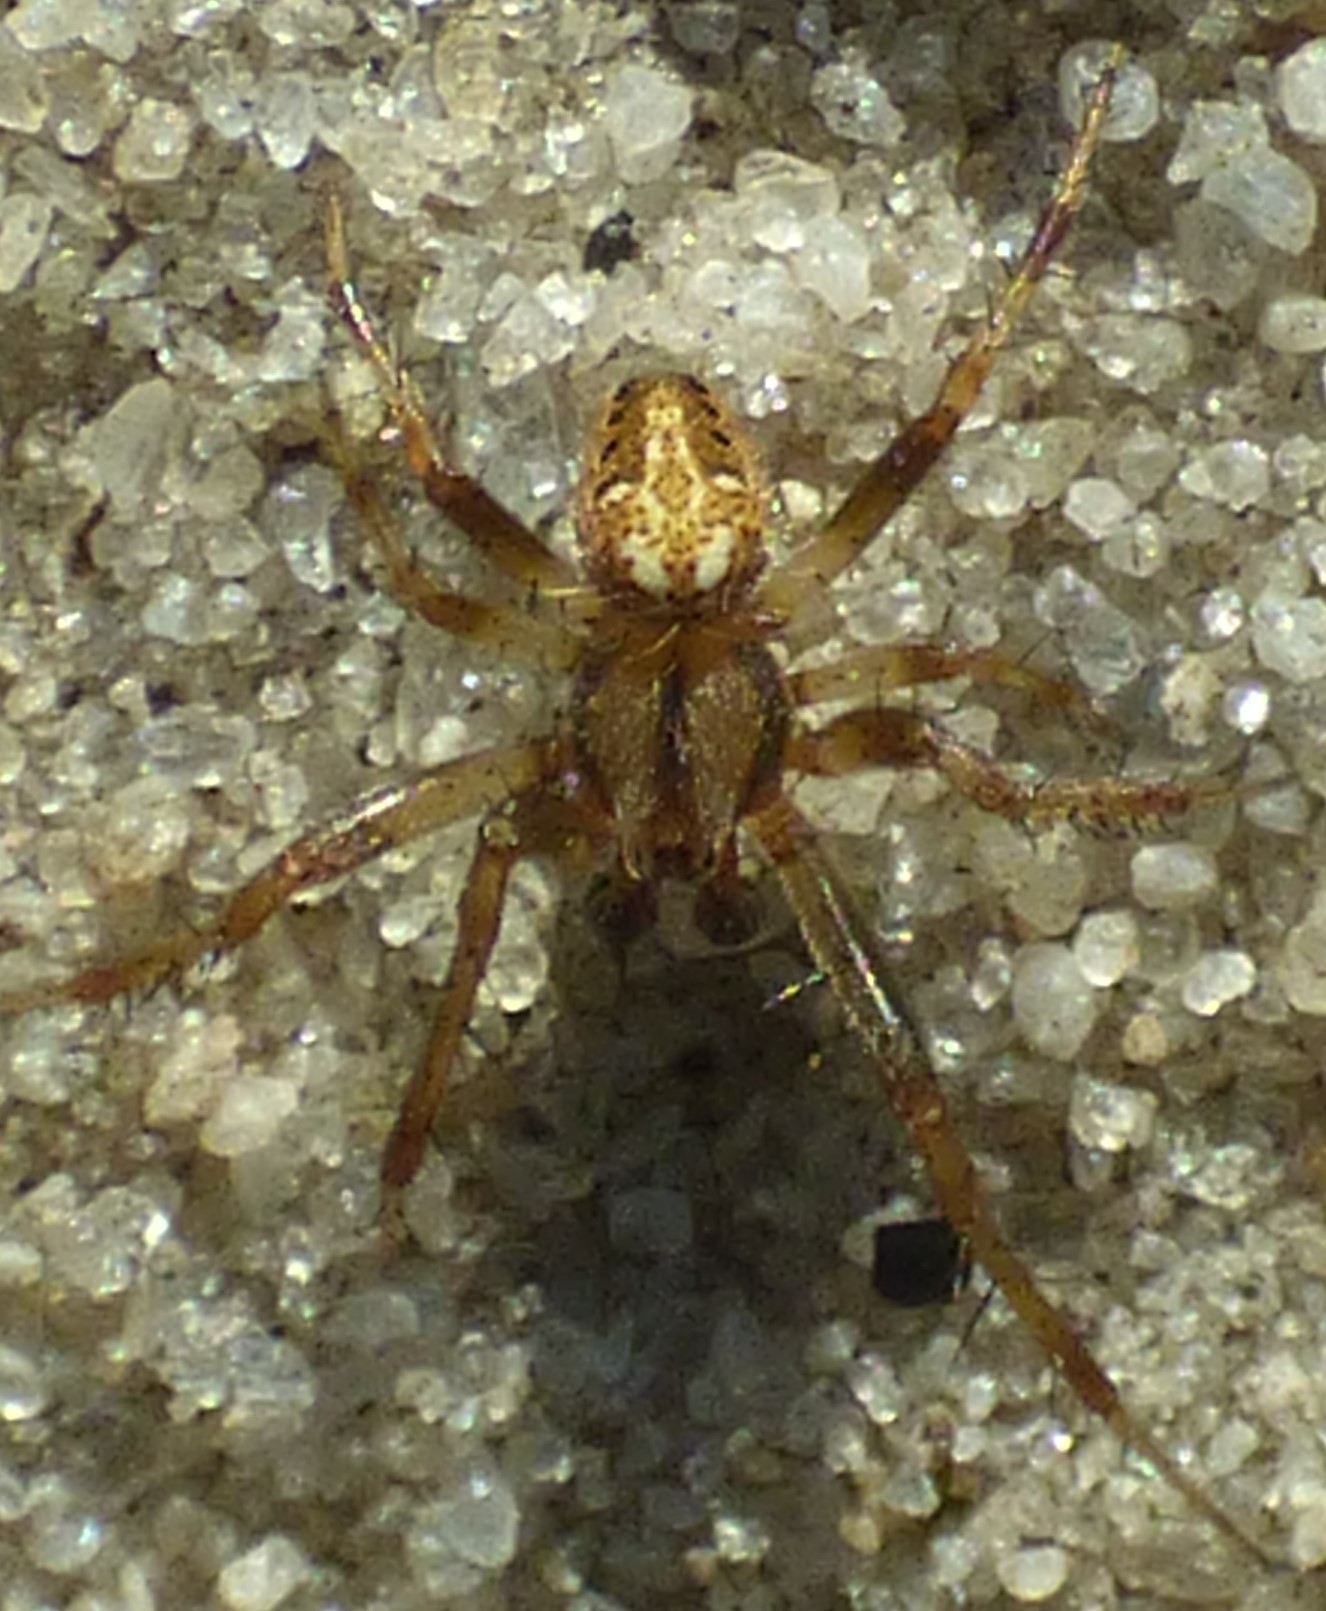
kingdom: Animalia
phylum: Arthropoda
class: Arachnida
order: Araneae
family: Araneidae
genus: Neoscona
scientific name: Neoscona arabesca
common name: Orb weavers
